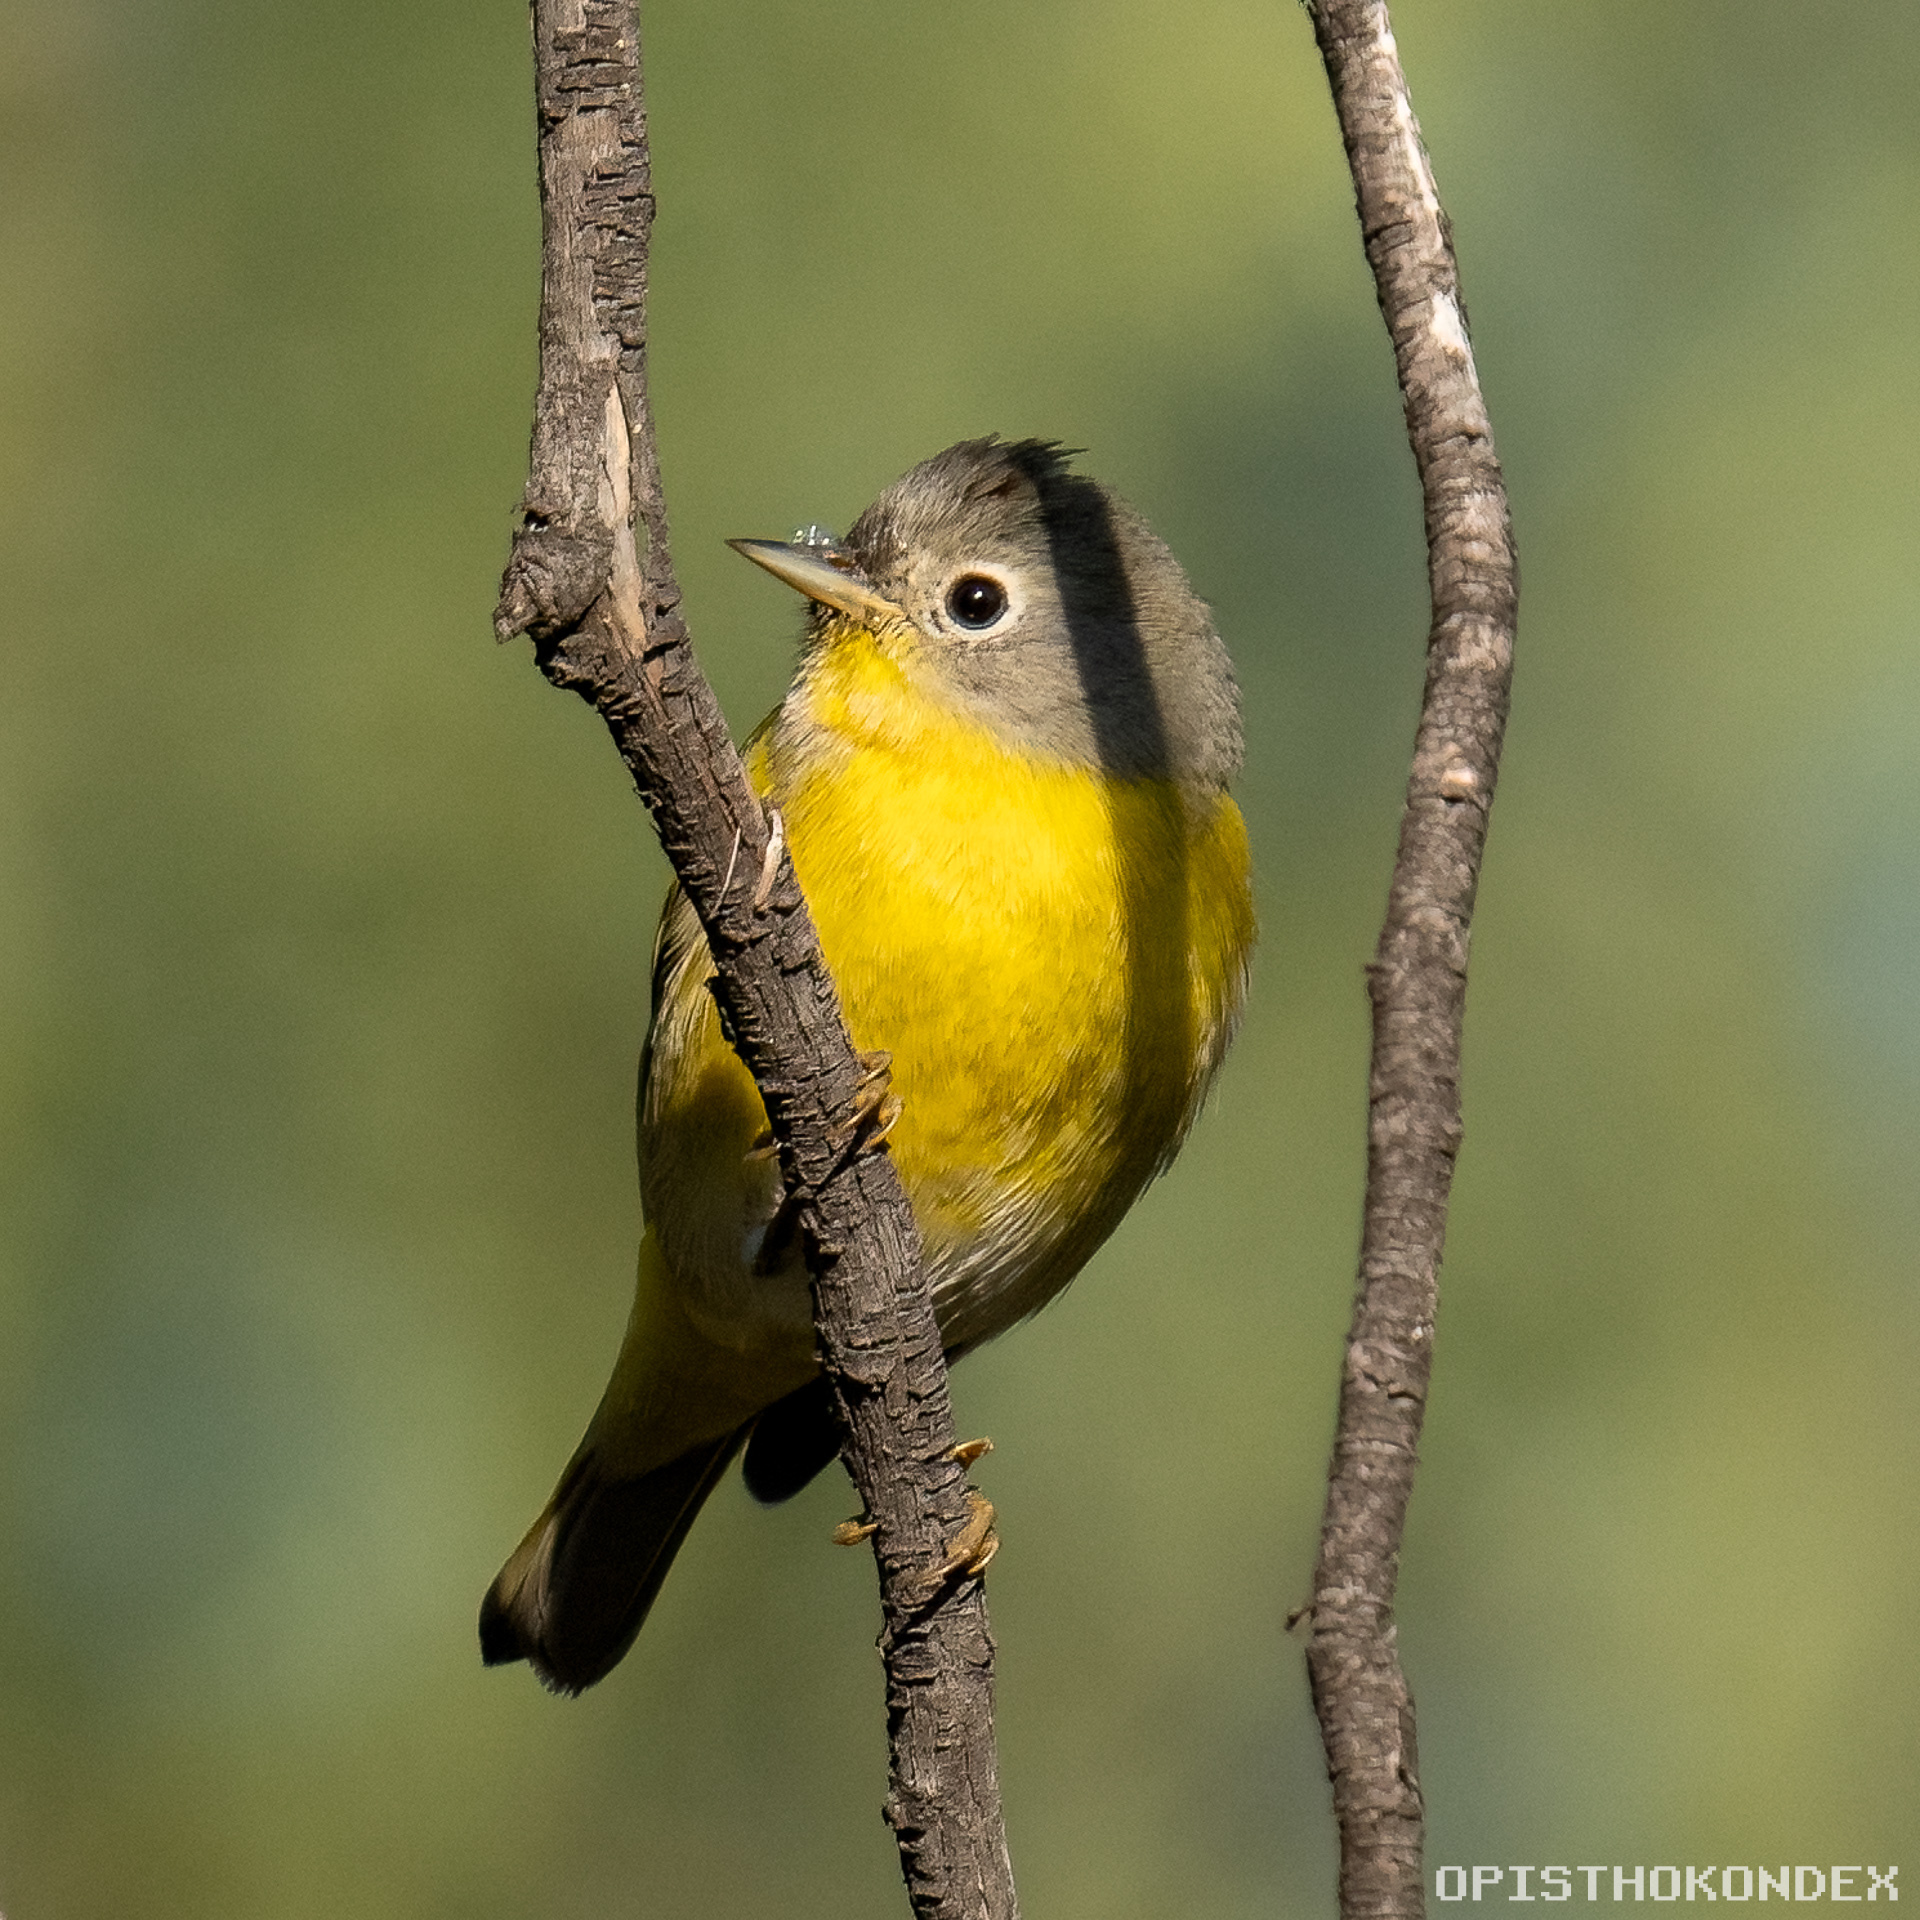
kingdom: Animalia
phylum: Chordata
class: Aves
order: Passeriformes
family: Parulidae
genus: Leiothlypis
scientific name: Leiothlypis ruficapilla
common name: Nashville warbler
